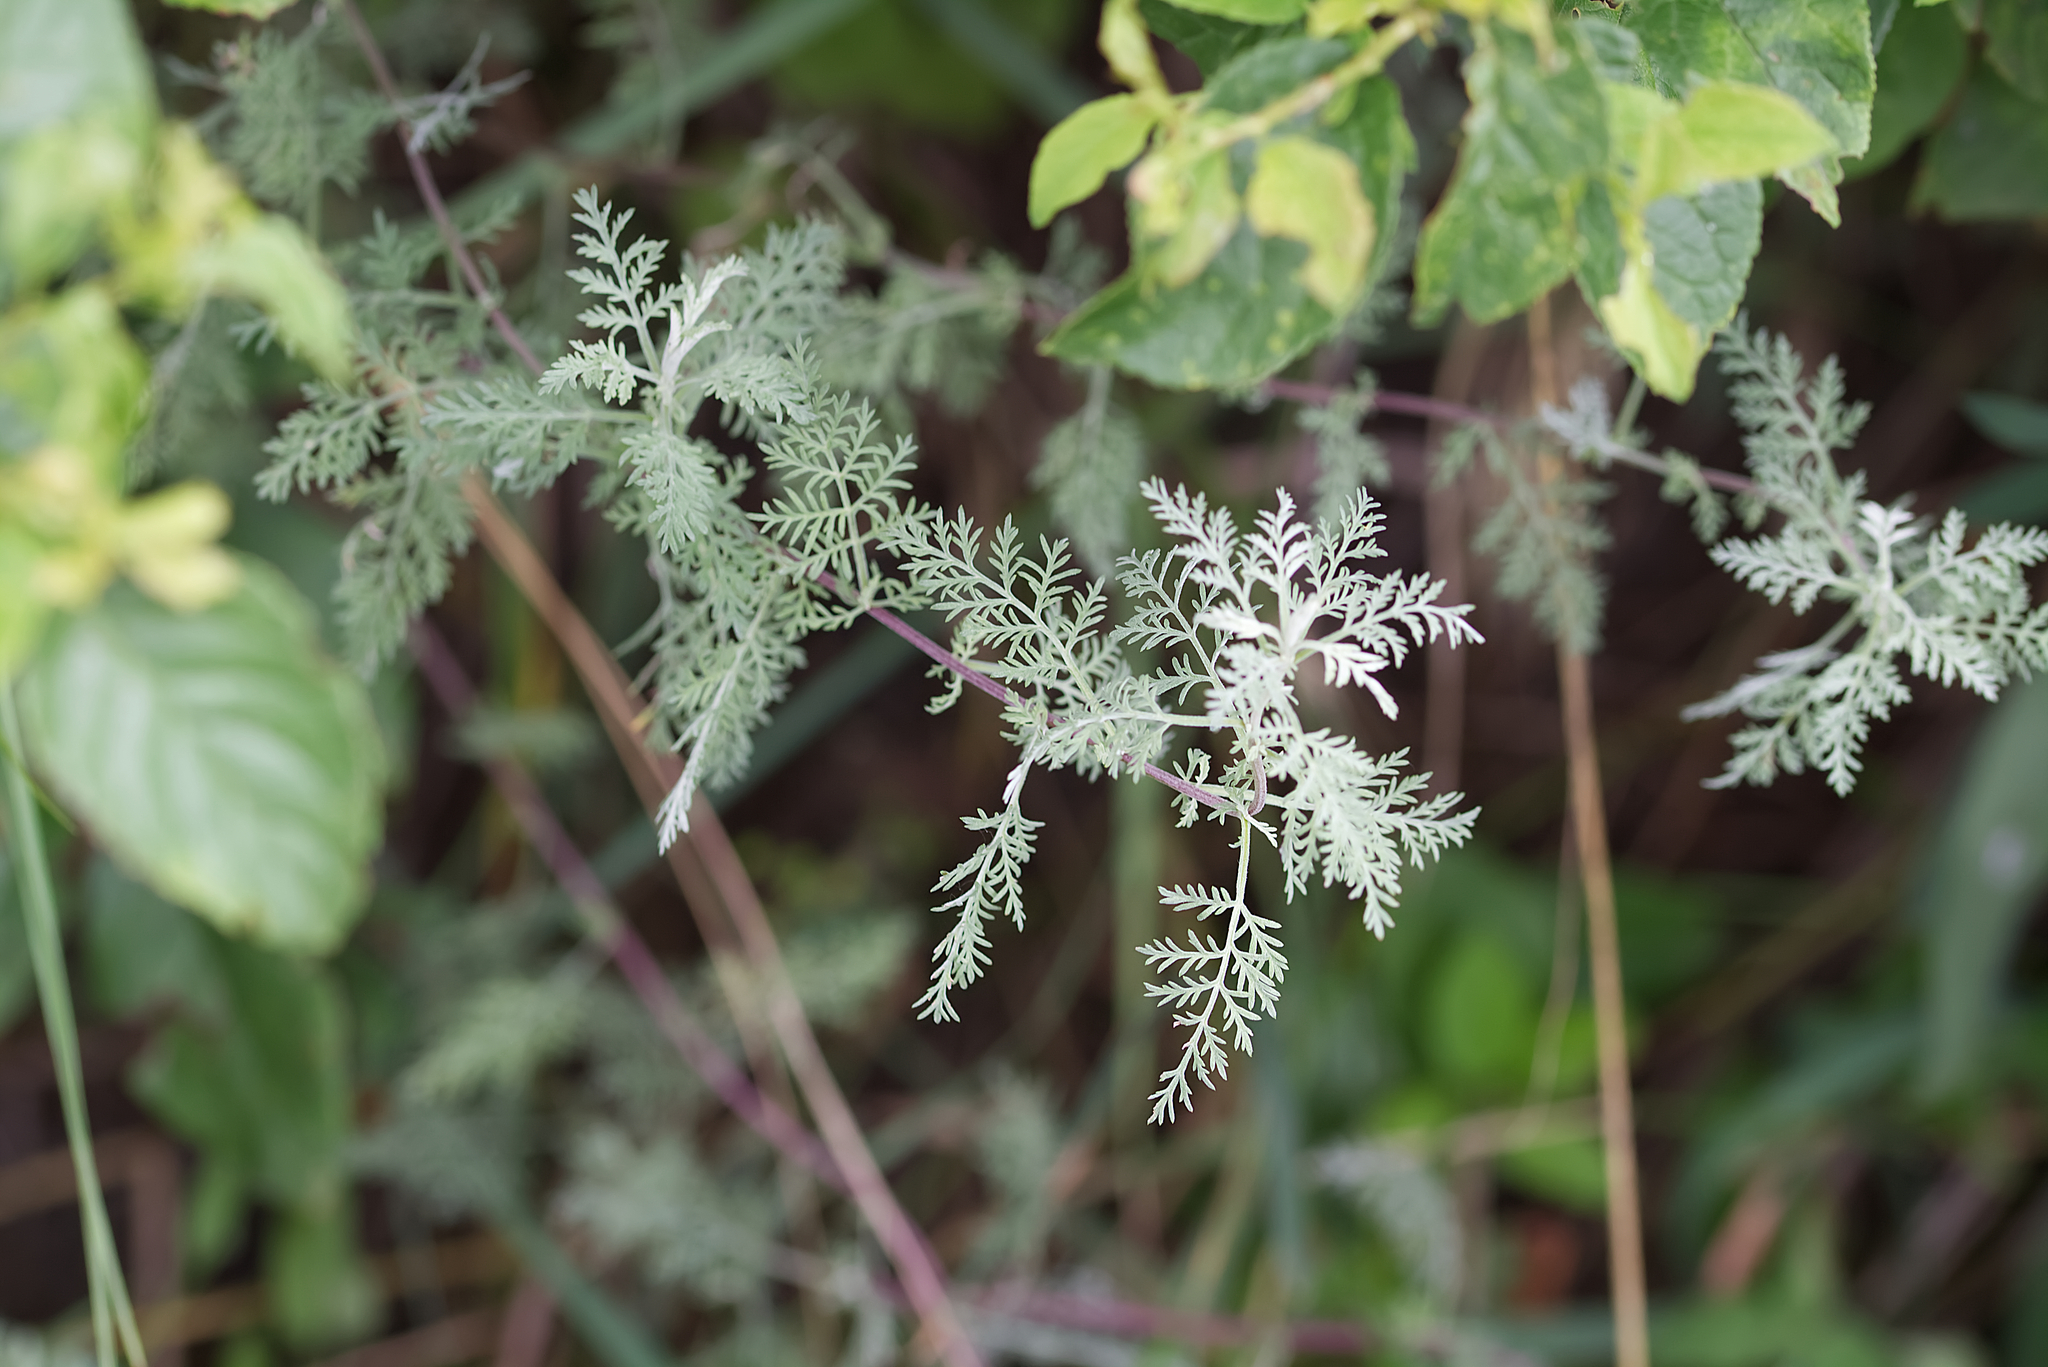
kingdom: Plantae
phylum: Tracheophyta
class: Magnoliopsida
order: Asterales
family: Asteraceae
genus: Artemisia
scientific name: Artemisia pontica
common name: Roman wormwood
